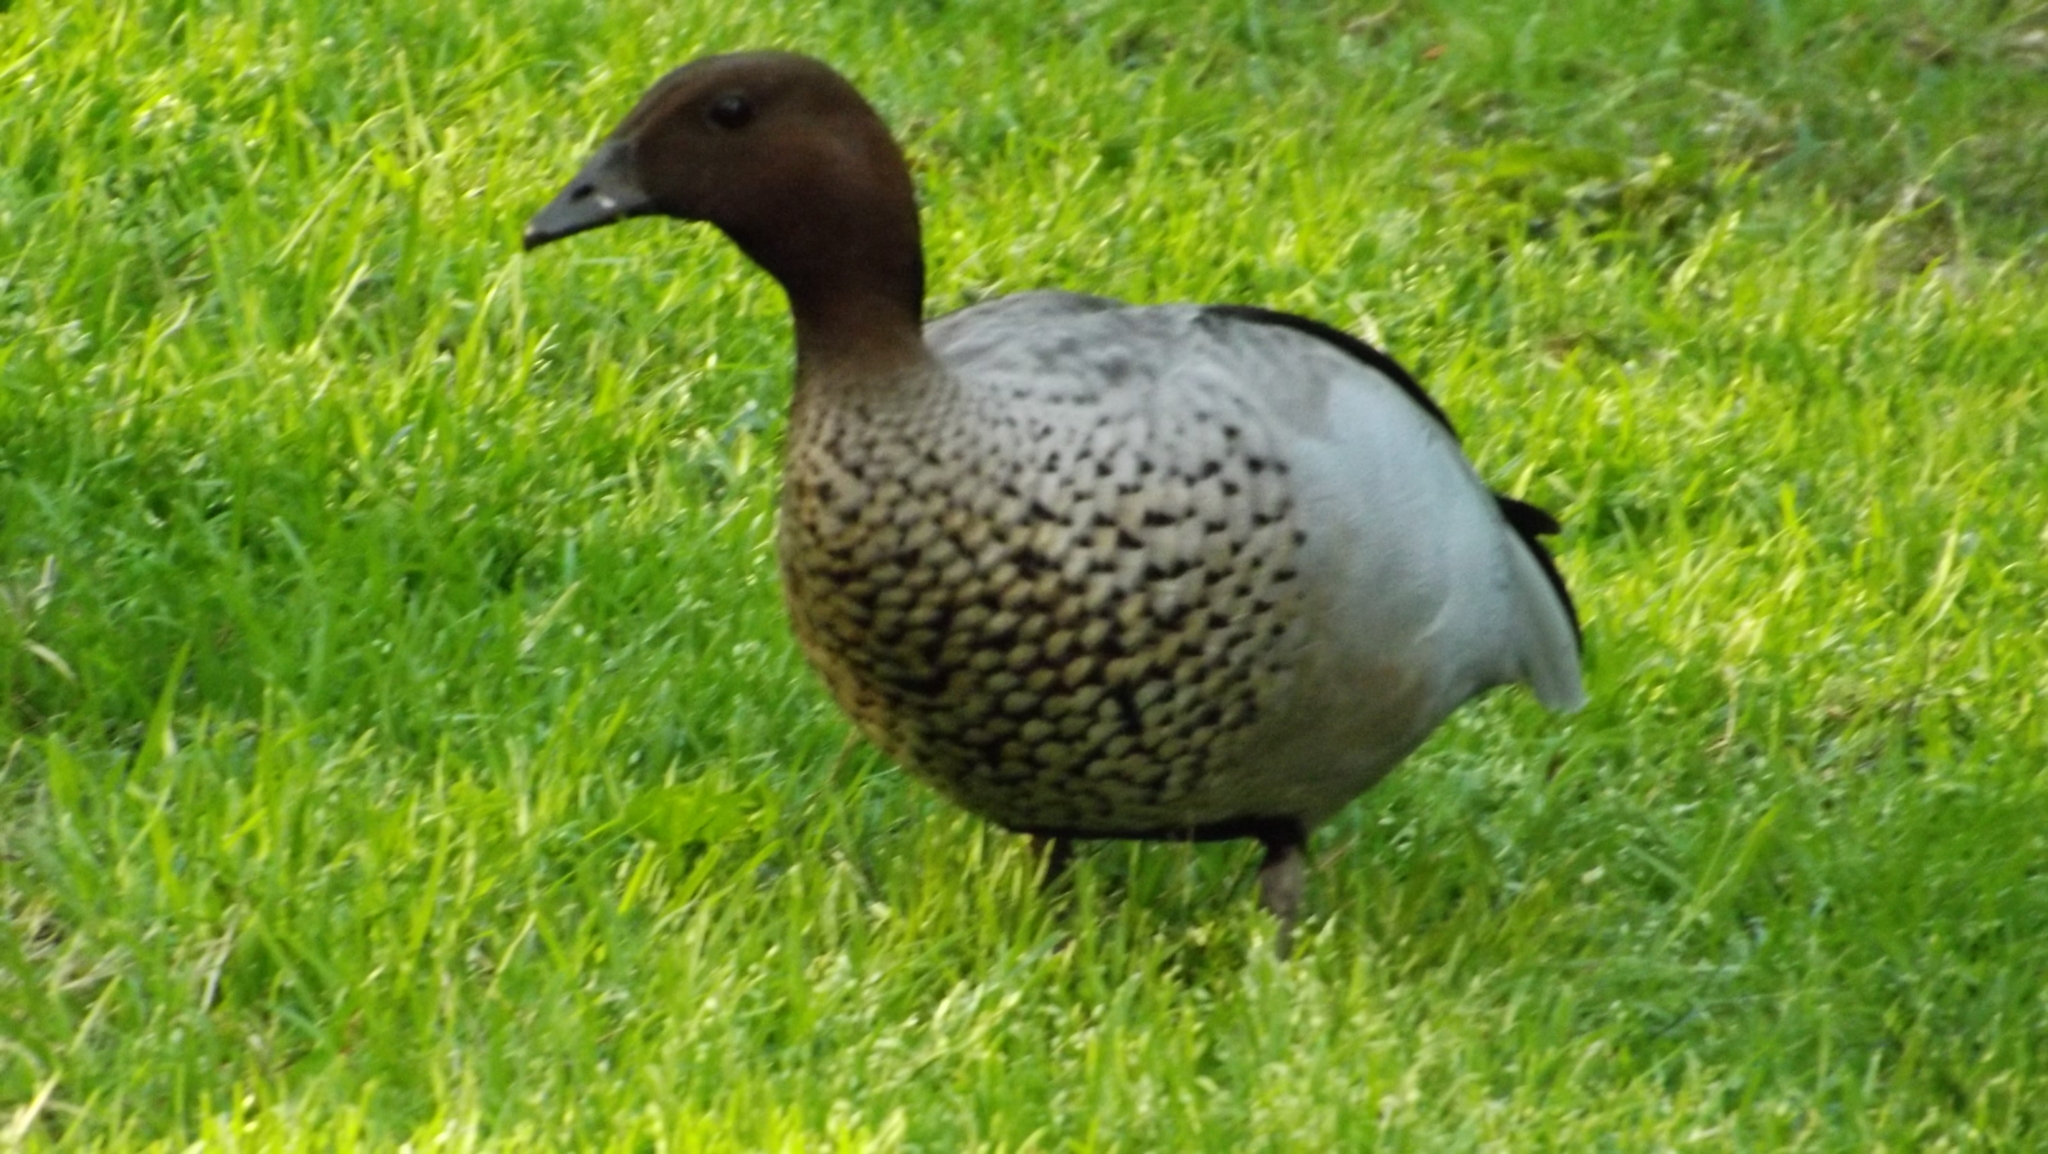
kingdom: Animalia
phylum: Chordata
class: Aves
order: Anseriformes
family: Anatidae
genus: Chenonetta
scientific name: Chenonetta jubata
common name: Maned duck
